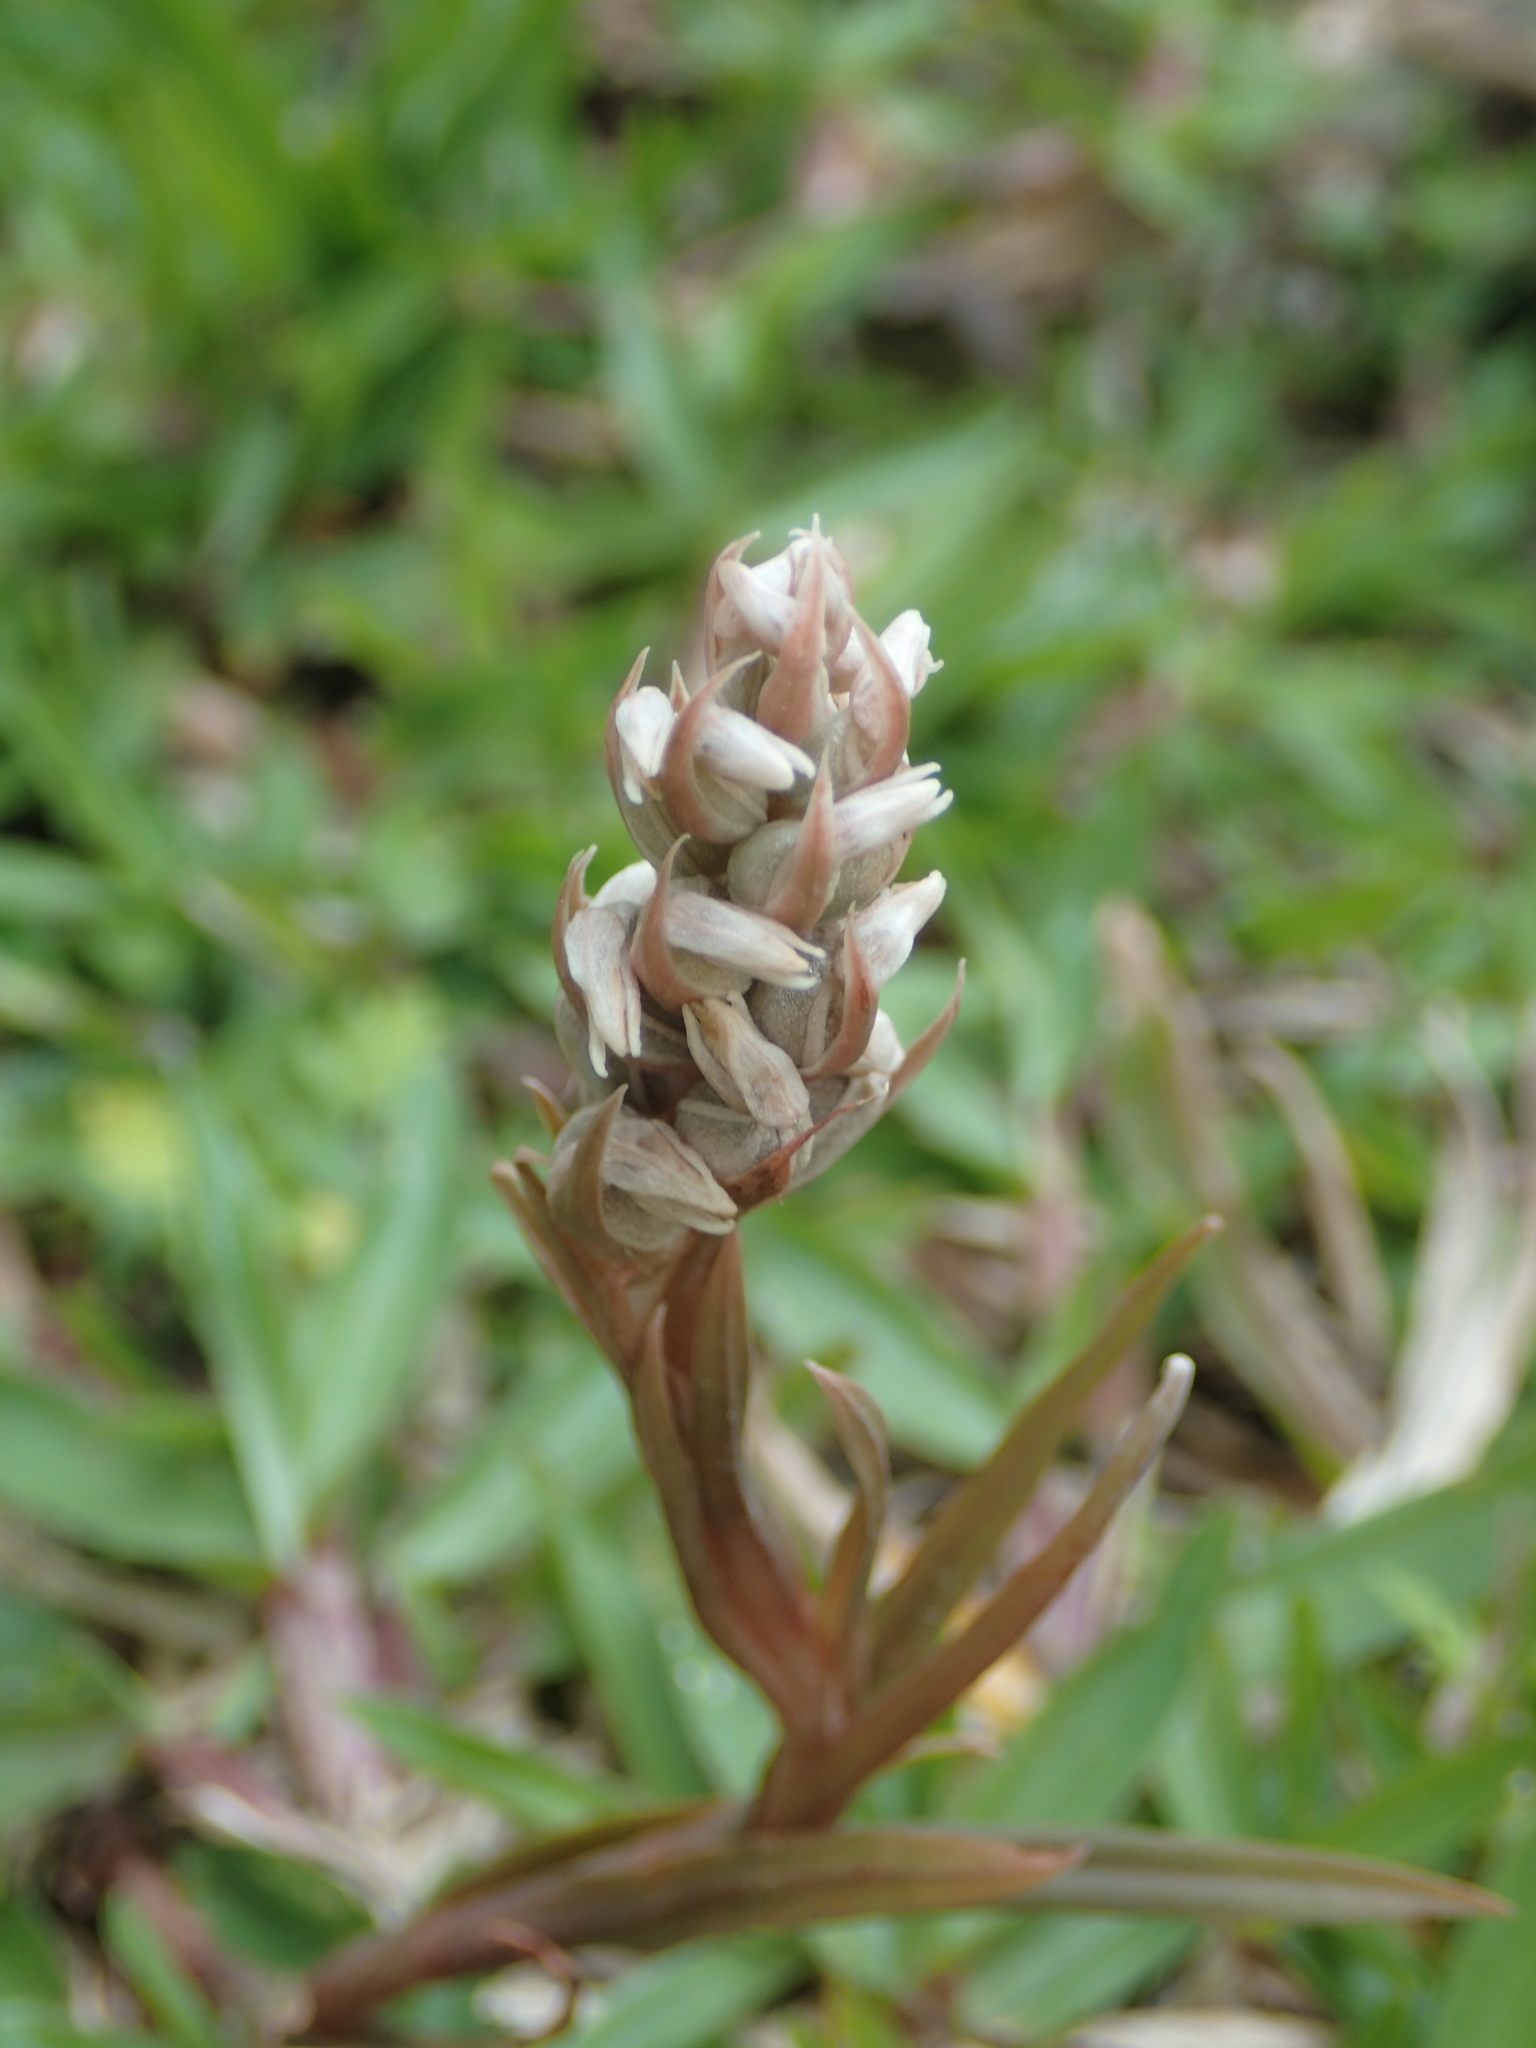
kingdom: Plantae
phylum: Tracheophyta
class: Liliopsida
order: Asparagales
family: Orchidaceae
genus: Zeuxine
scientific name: Zeuxine strateumatica
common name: Soldier's orchid
